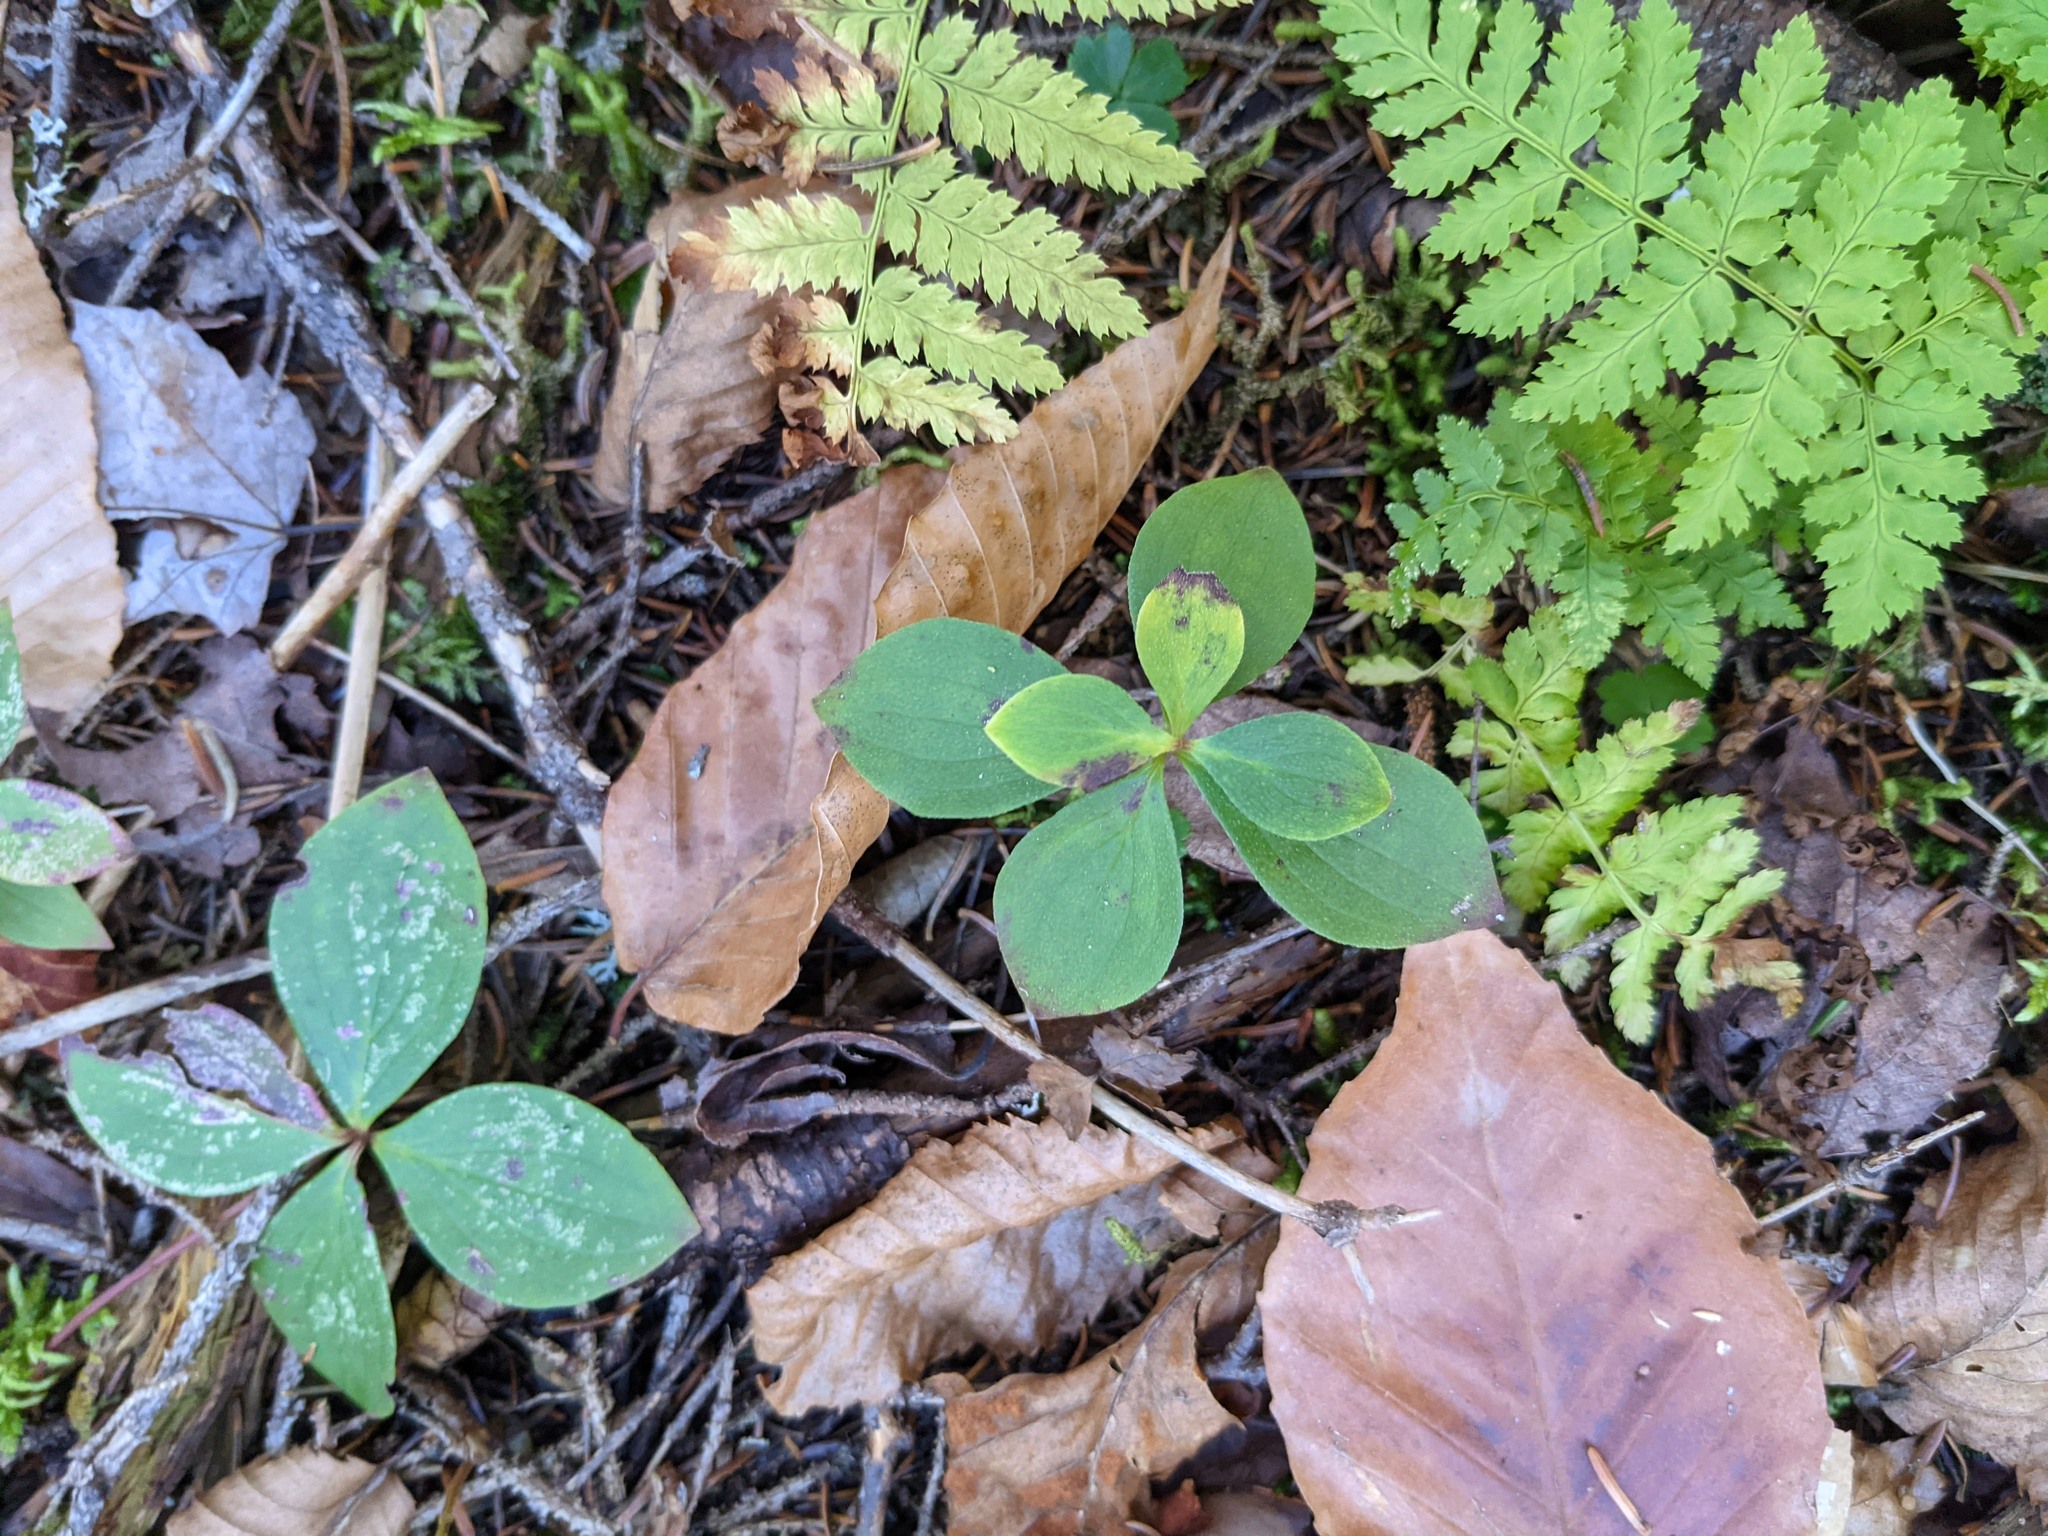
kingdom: Plantae
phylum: Tracheophyta
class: Magnoliopsida
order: Cornales
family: Cornaceae
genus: Cornus
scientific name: Cornus canadensis
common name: Creeping dogwood
